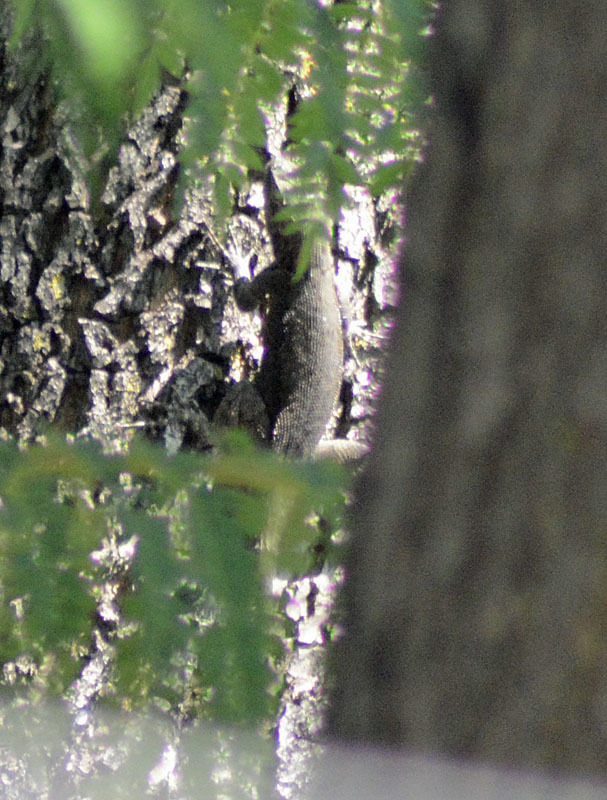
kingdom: Animalia
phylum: Chordata
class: Squamata
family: Phrynosomatidae
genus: Sceloporus
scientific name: Sceloporus grammicus
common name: Mesquite lizard
